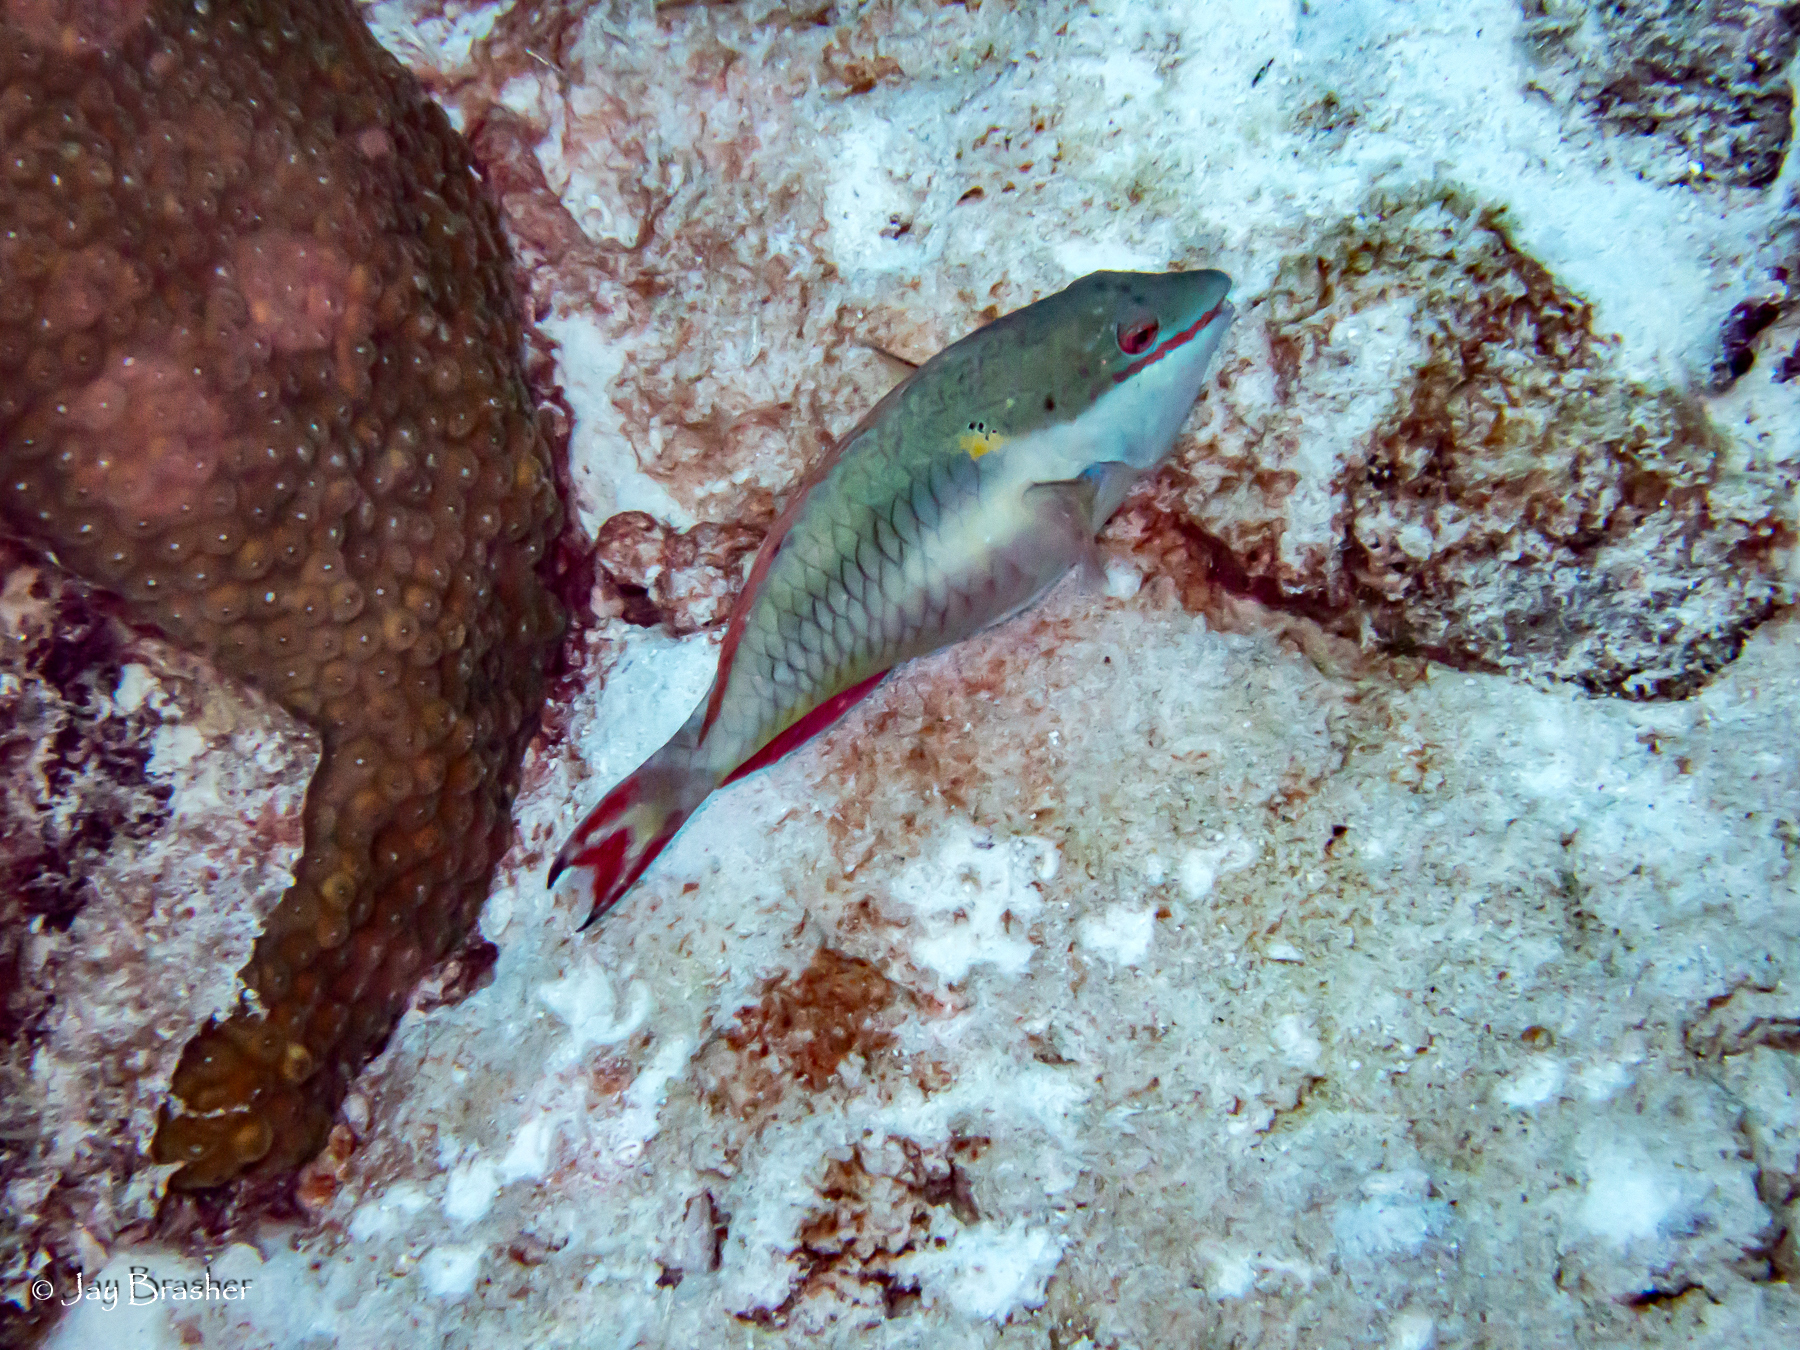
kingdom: Animalia
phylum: Chordata
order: Perciformes
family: Scaridae
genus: Sparisoma
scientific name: Sparisoma aurofrenatum
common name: Redband parrotfish
